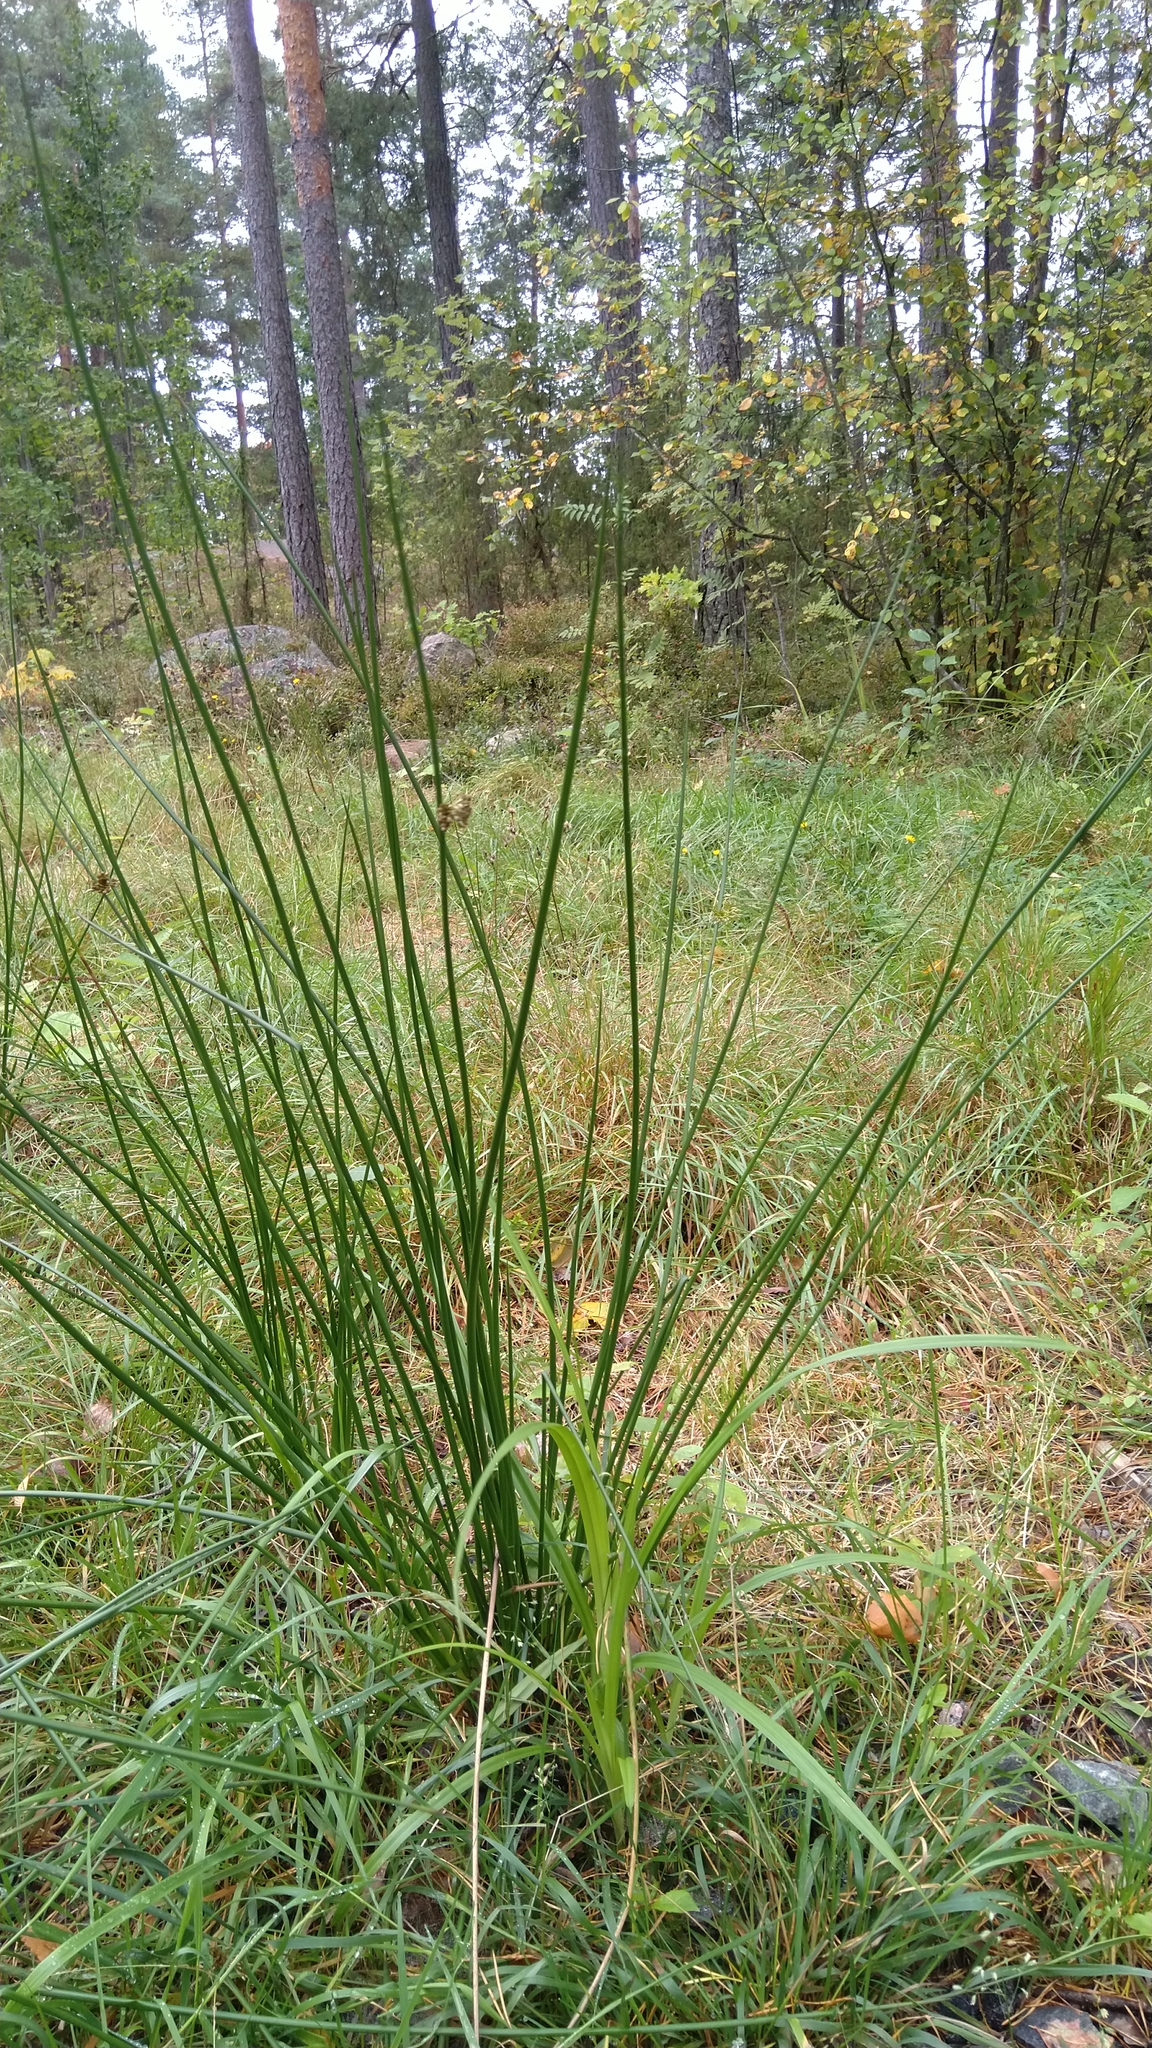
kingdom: Plantae
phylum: Tracheophyta
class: Liliopsida
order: Poales
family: Juncaceae
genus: Juncus
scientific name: Juncus effusus
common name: Soft rush
